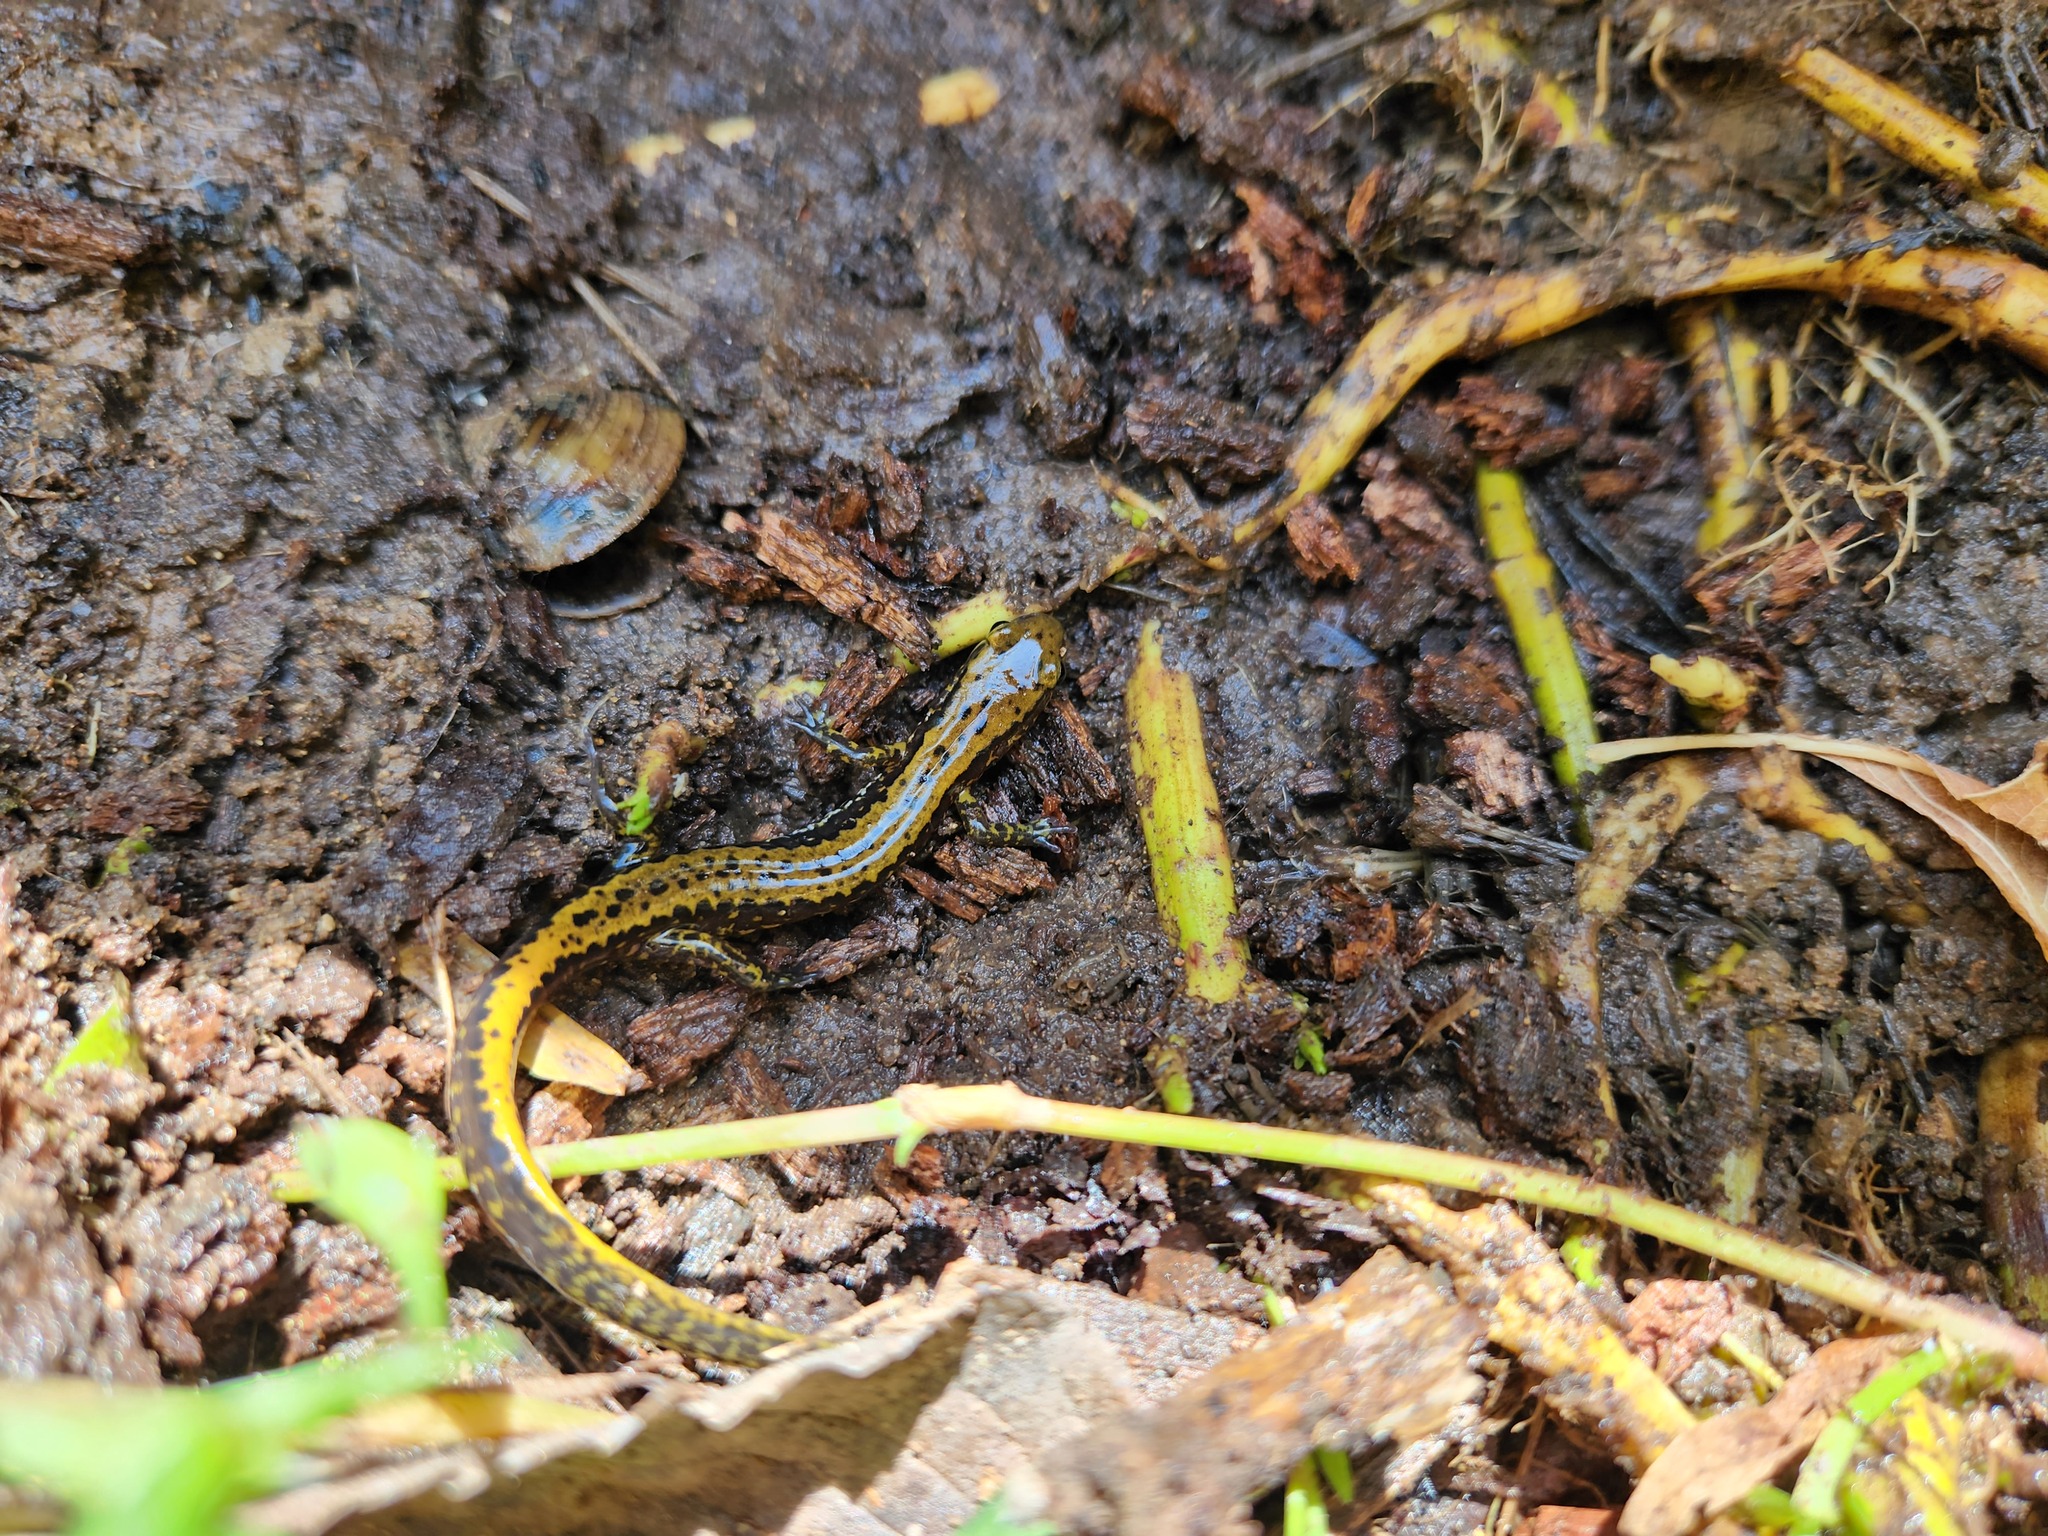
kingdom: Animalia
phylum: Chordata
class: Amphibia
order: Caudata
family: Plethodontidae
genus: Eurycea
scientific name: Eurycea longicauda
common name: Long-tailed salamander
